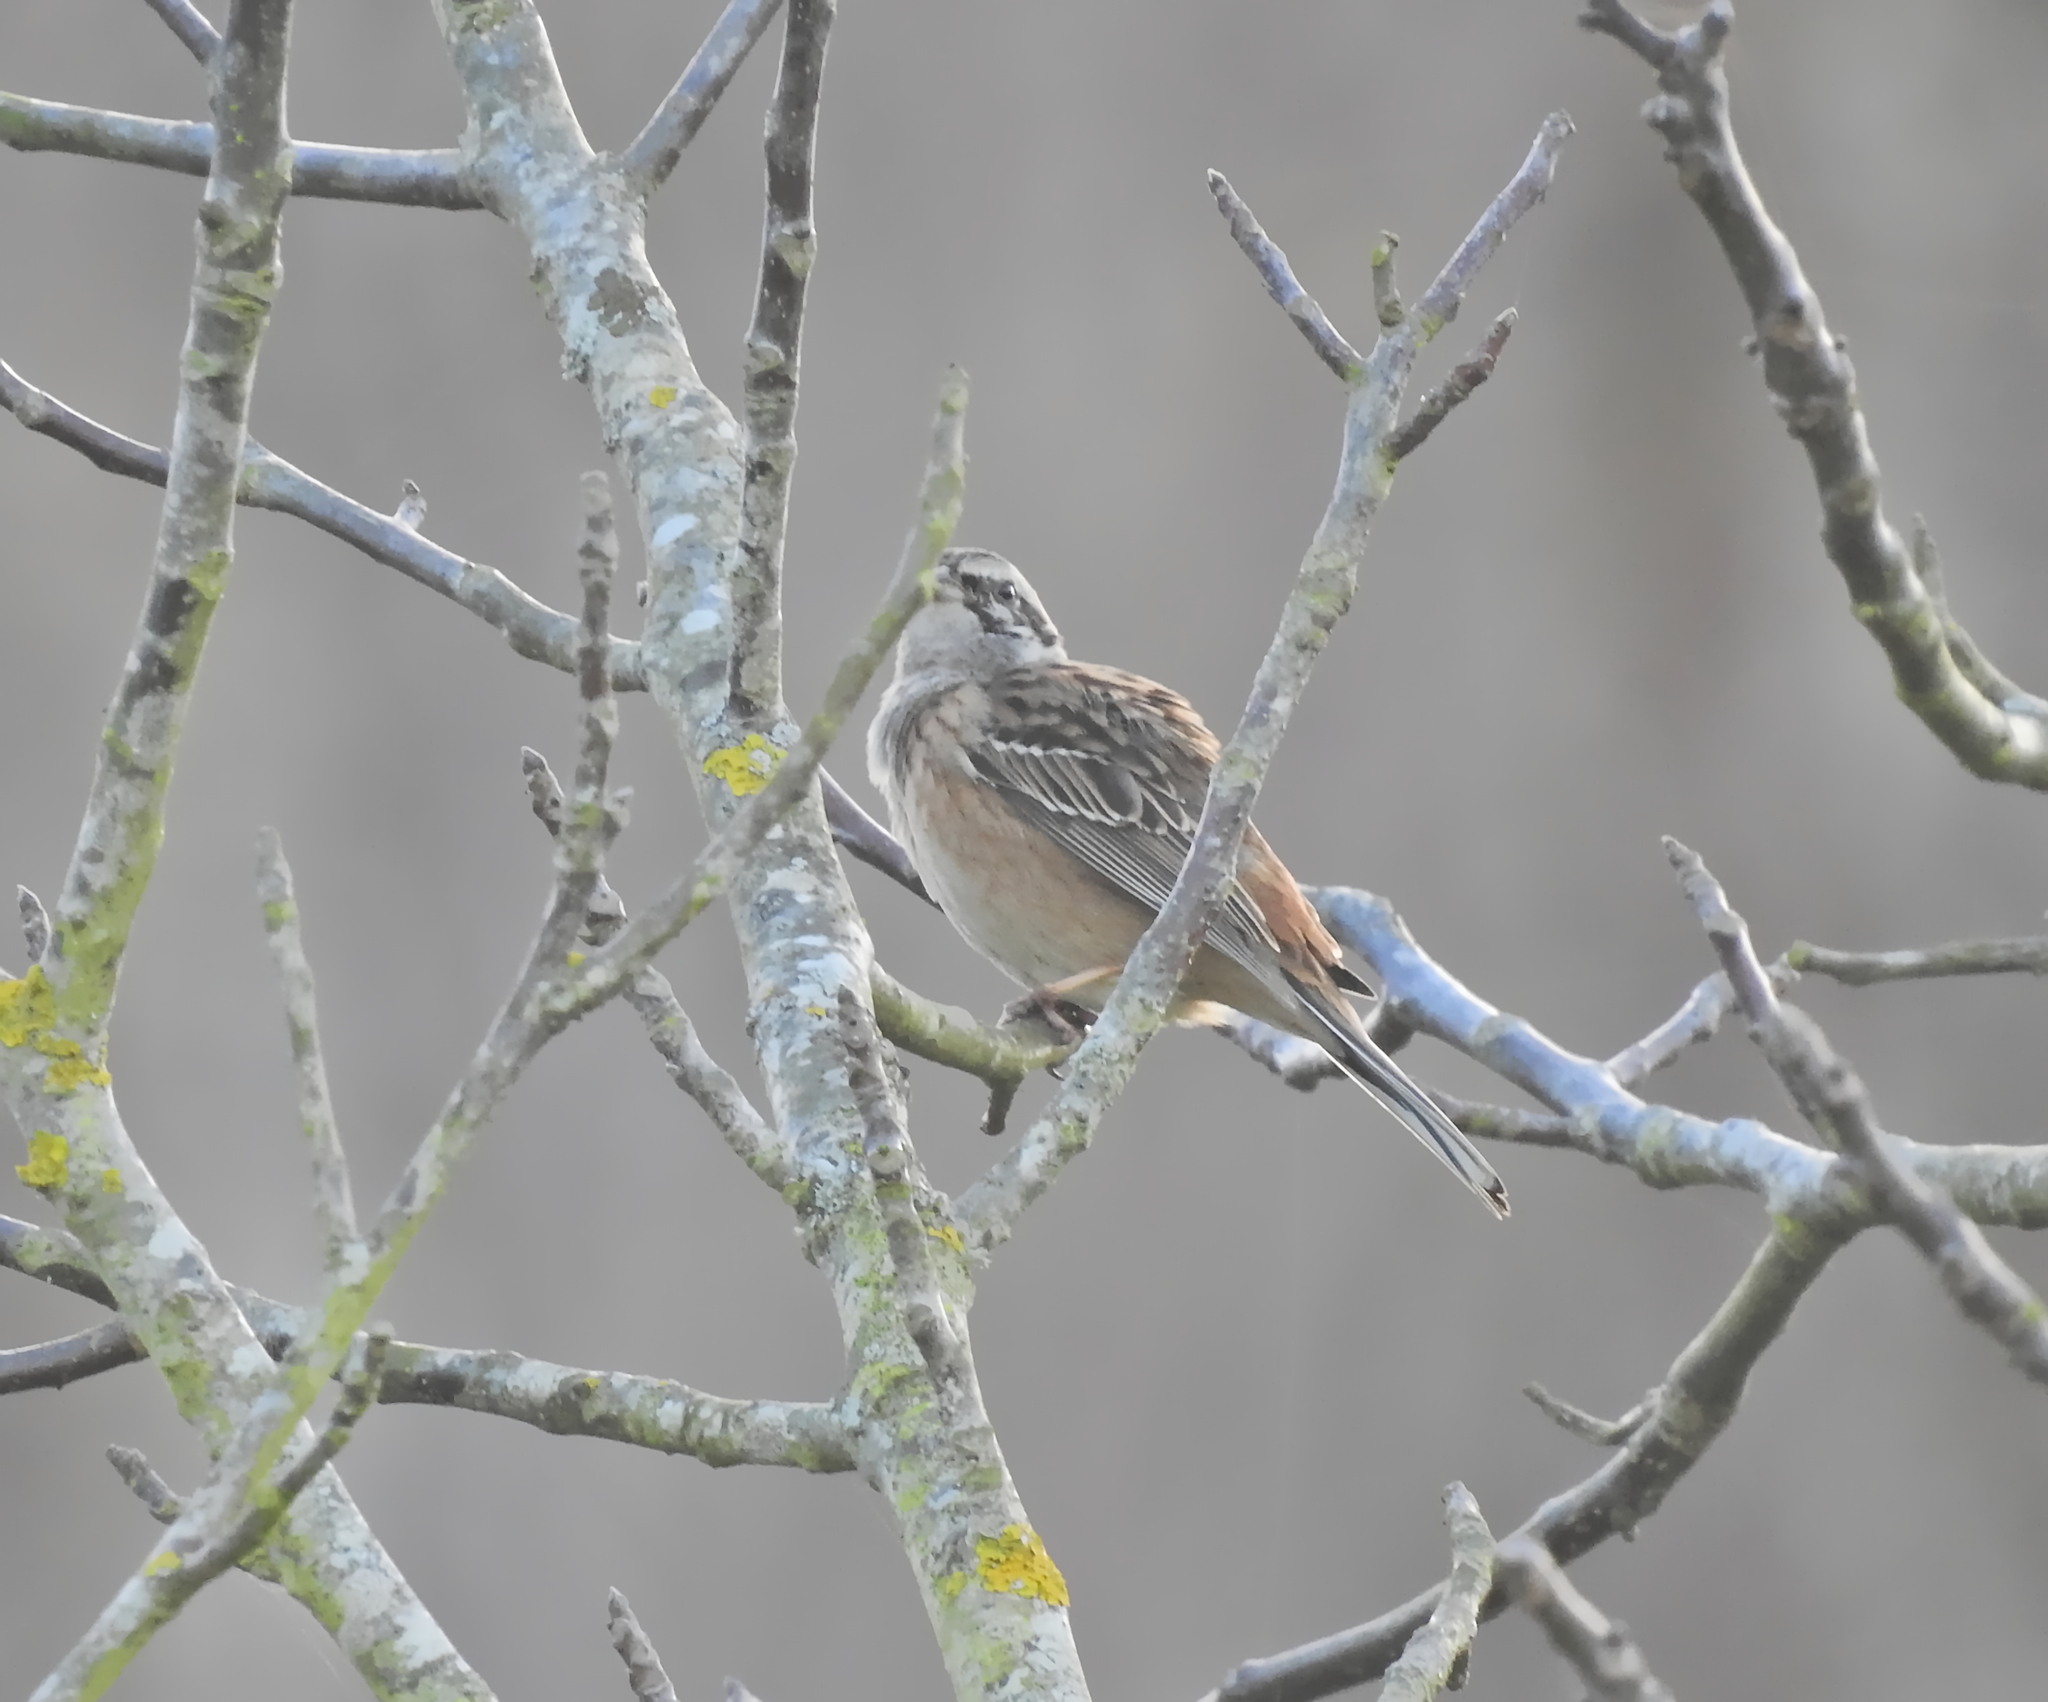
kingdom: Animalia
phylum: Chordata
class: Aves
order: Passeriformes
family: Emberizidae
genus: Emberiza
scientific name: Emberiza cia
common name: Rock bunting
